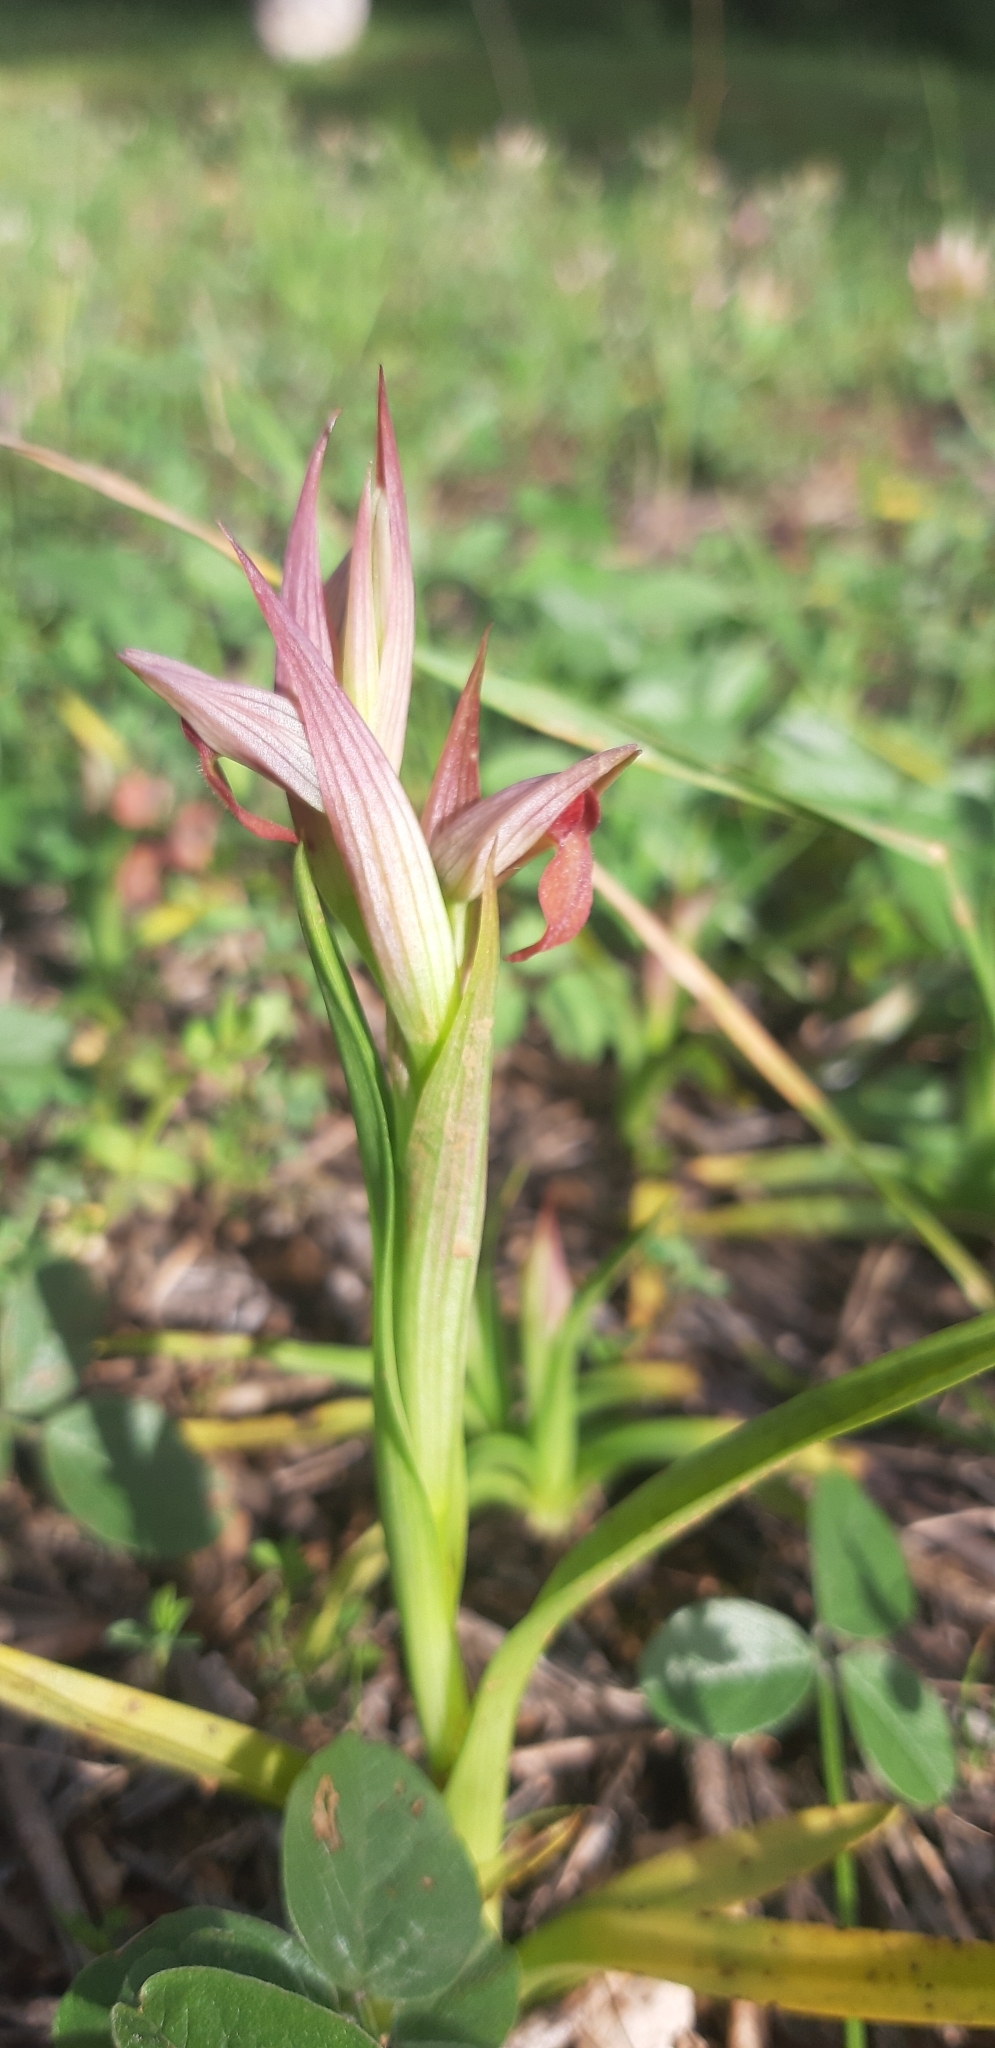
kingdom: Plantae
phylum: Tracheophyta
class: Liliopsida
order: Asparagales
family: Orchidaceae
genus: Serapias
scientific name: Serapias parviflora
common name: Small-flowered tongue-orchid
